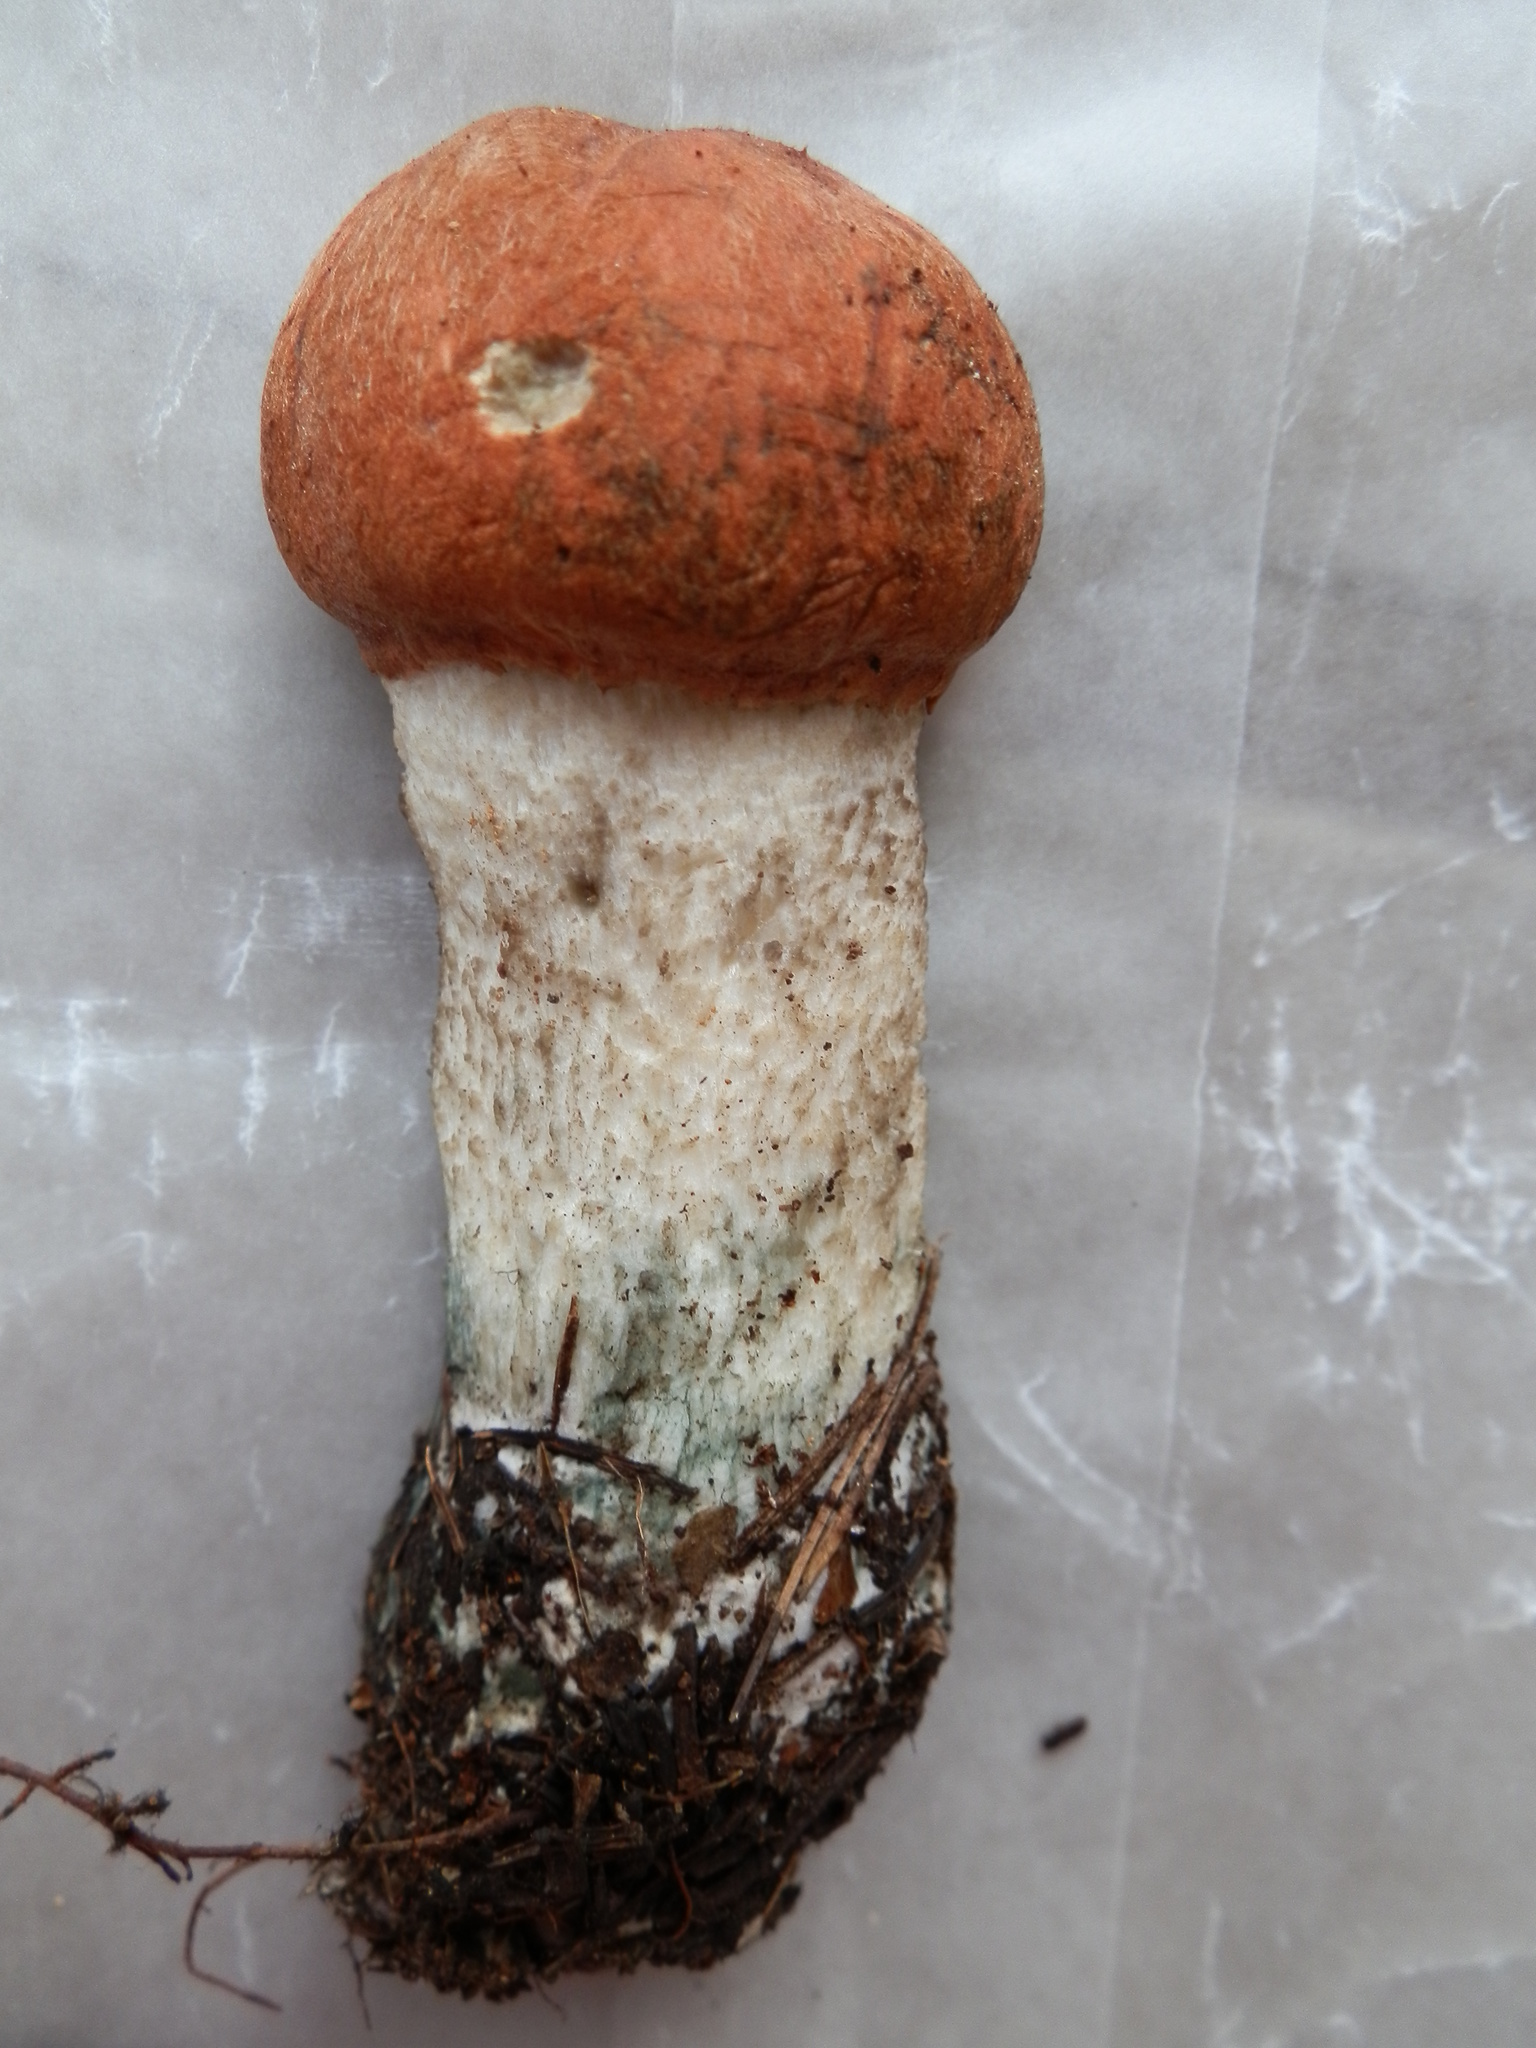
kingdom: Fungi
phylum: Basidiomycota
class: Agaricomycetes
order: Boletales
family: Boletaceae
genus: Leccinum
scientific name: Leccinum aurantiacum
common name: Orange bolete
